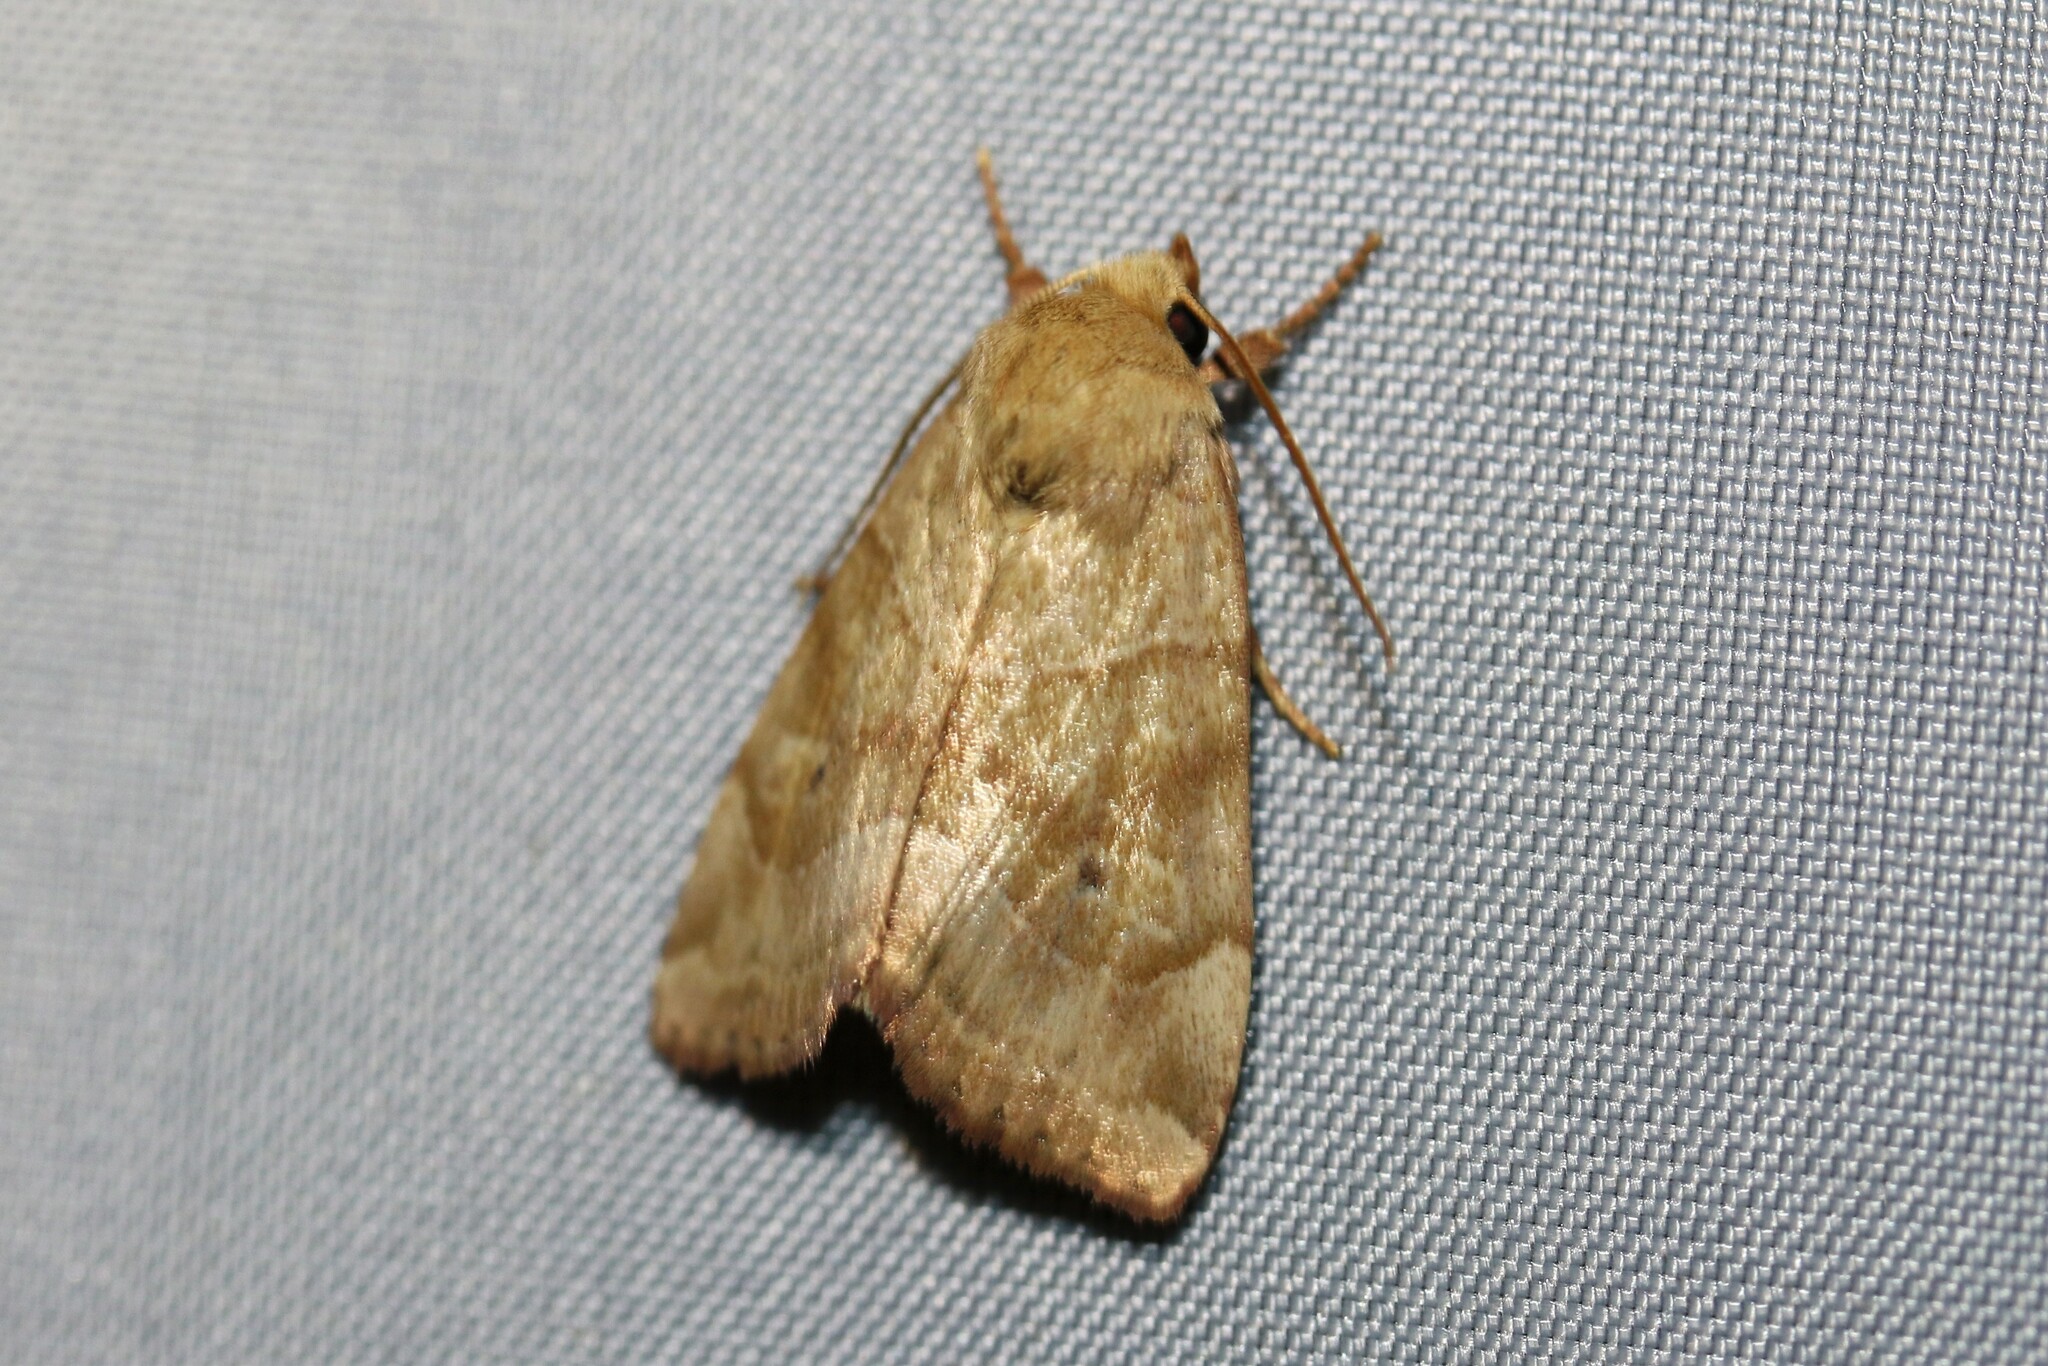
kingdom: Animalia
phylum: Arthropoda
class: Insecta
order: Lepidoptera
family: Noctuidae
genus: Cosmia
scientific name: Cosmia trapezina
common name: Dun-bar
